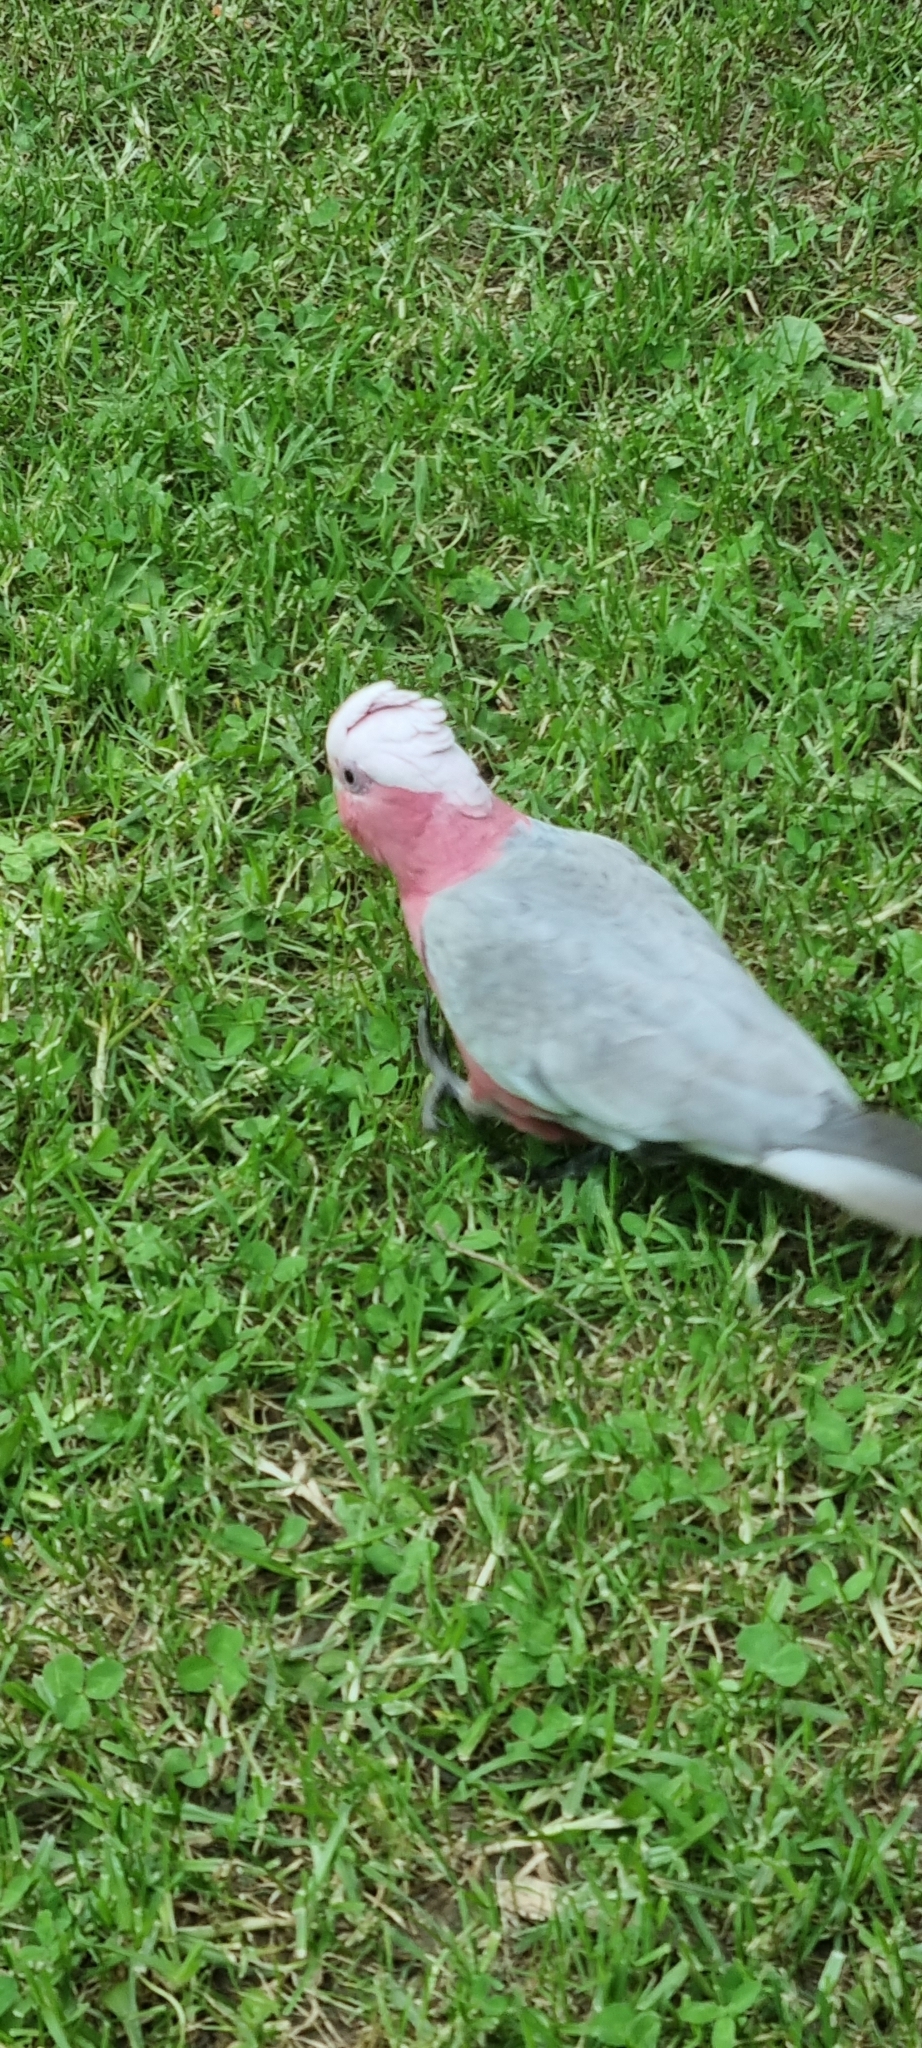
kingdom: Animalia
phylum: Chordata
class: Aves
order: Psittaciformes
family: Psittacidae
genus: Eolophus
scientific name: Eolophus roseicapilla
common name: Galah
